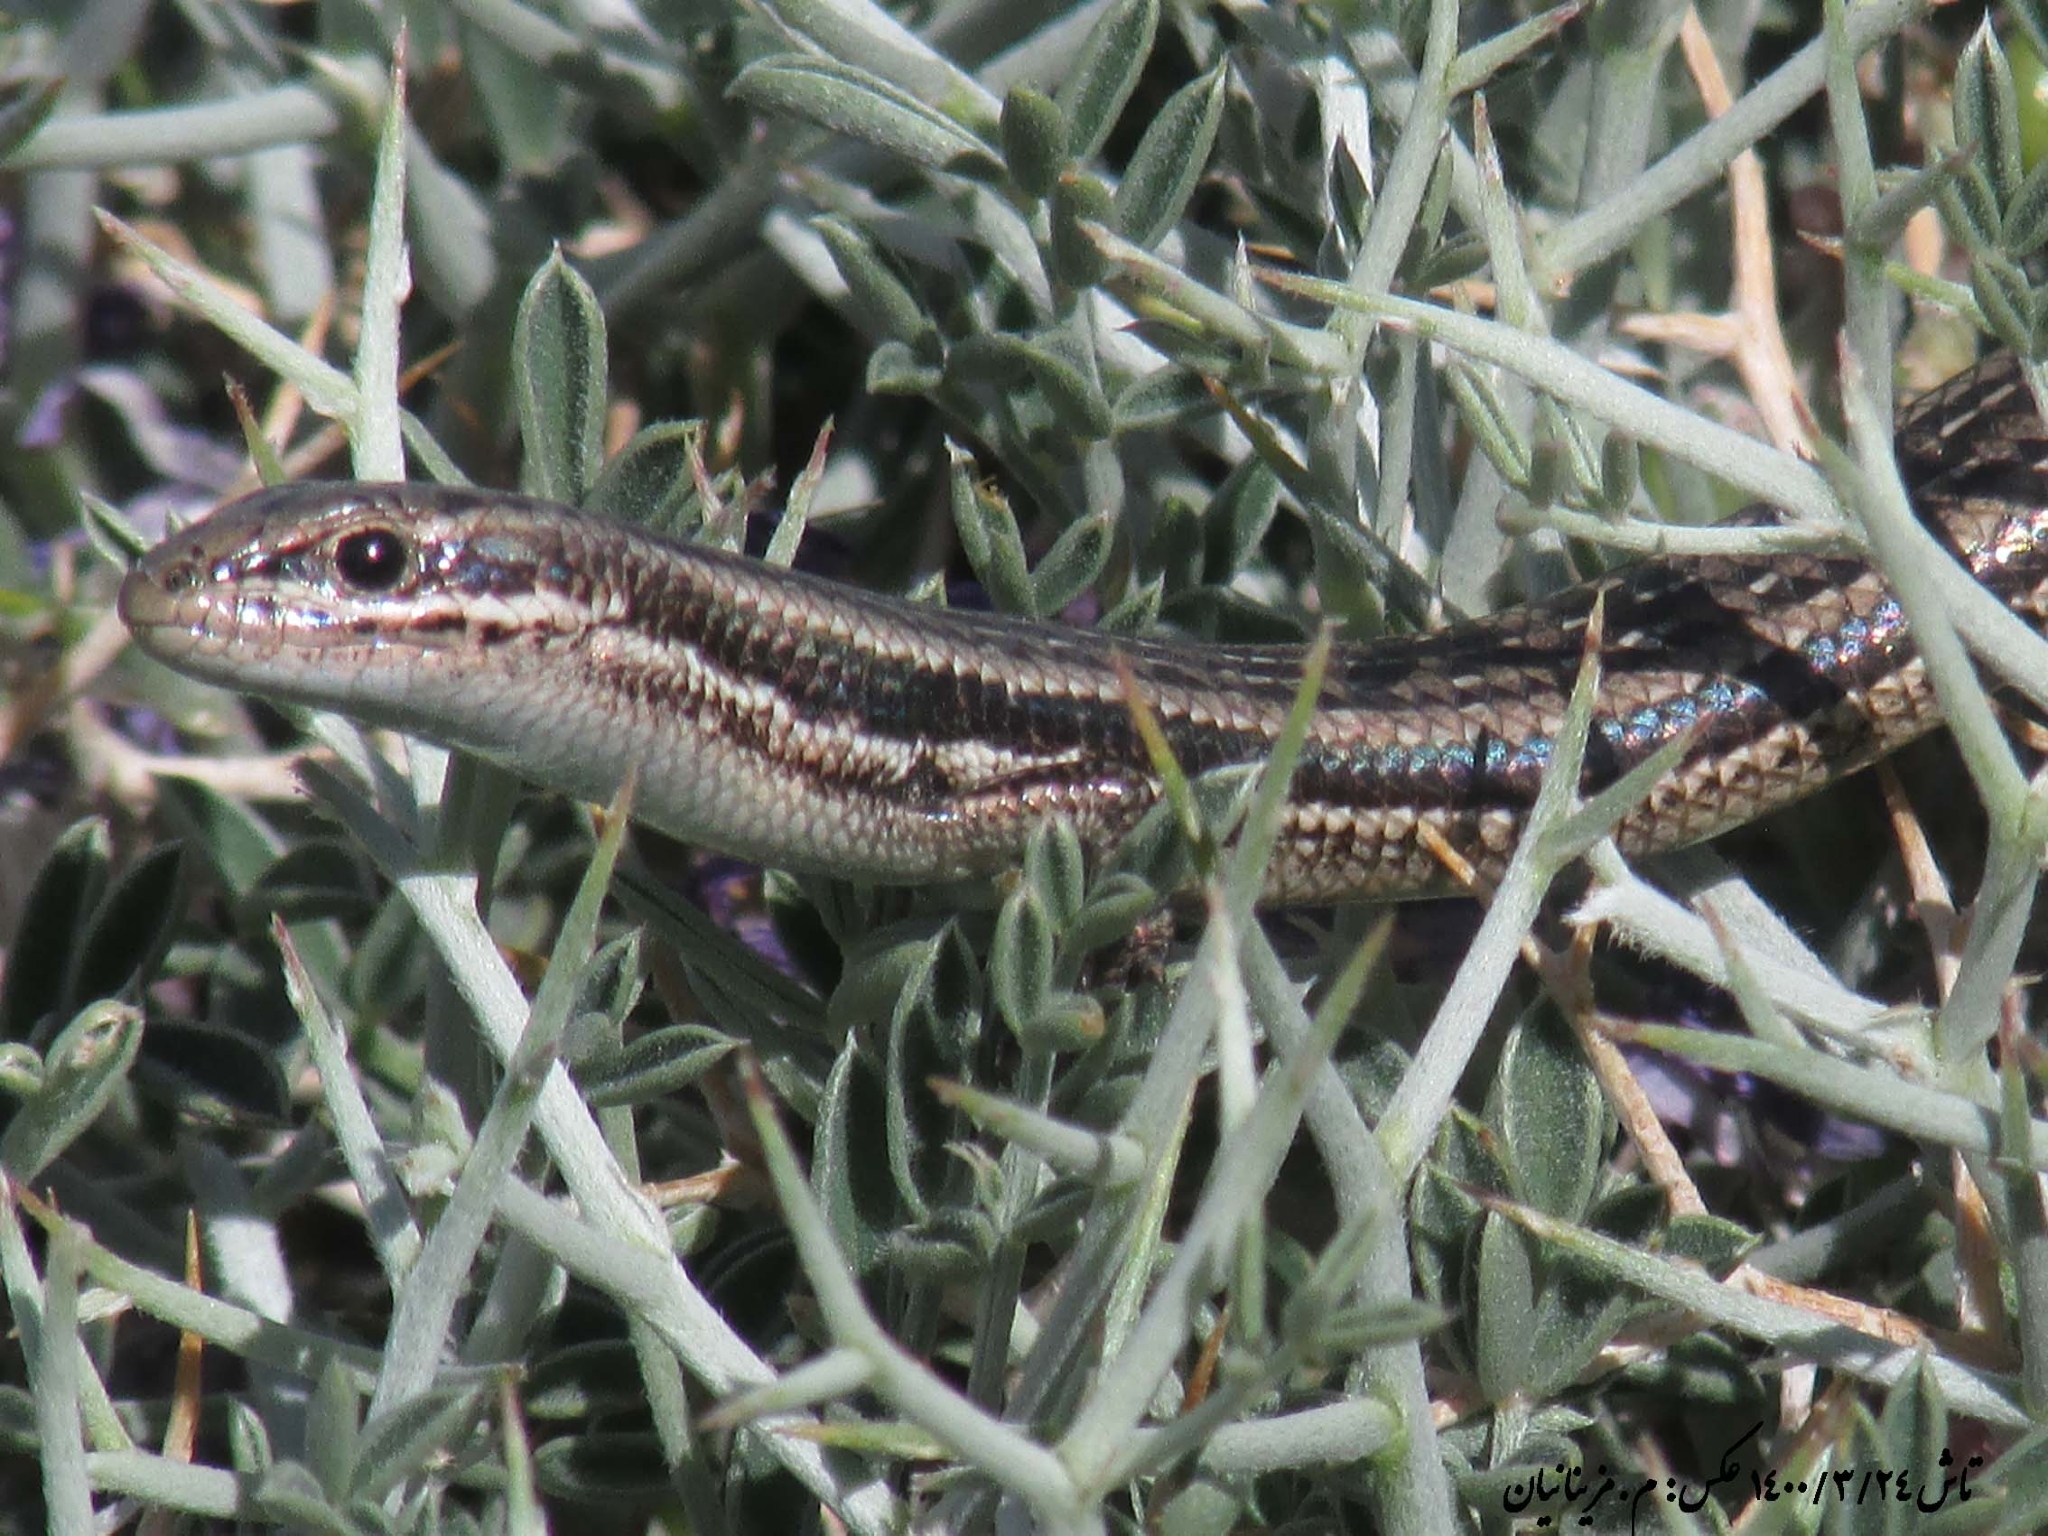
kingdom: Animalia
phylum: Chordata
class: Squamata
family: Scincidae
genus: Ablepharus
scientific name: Ablepharus bivittatus
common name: Twin-striped skink
